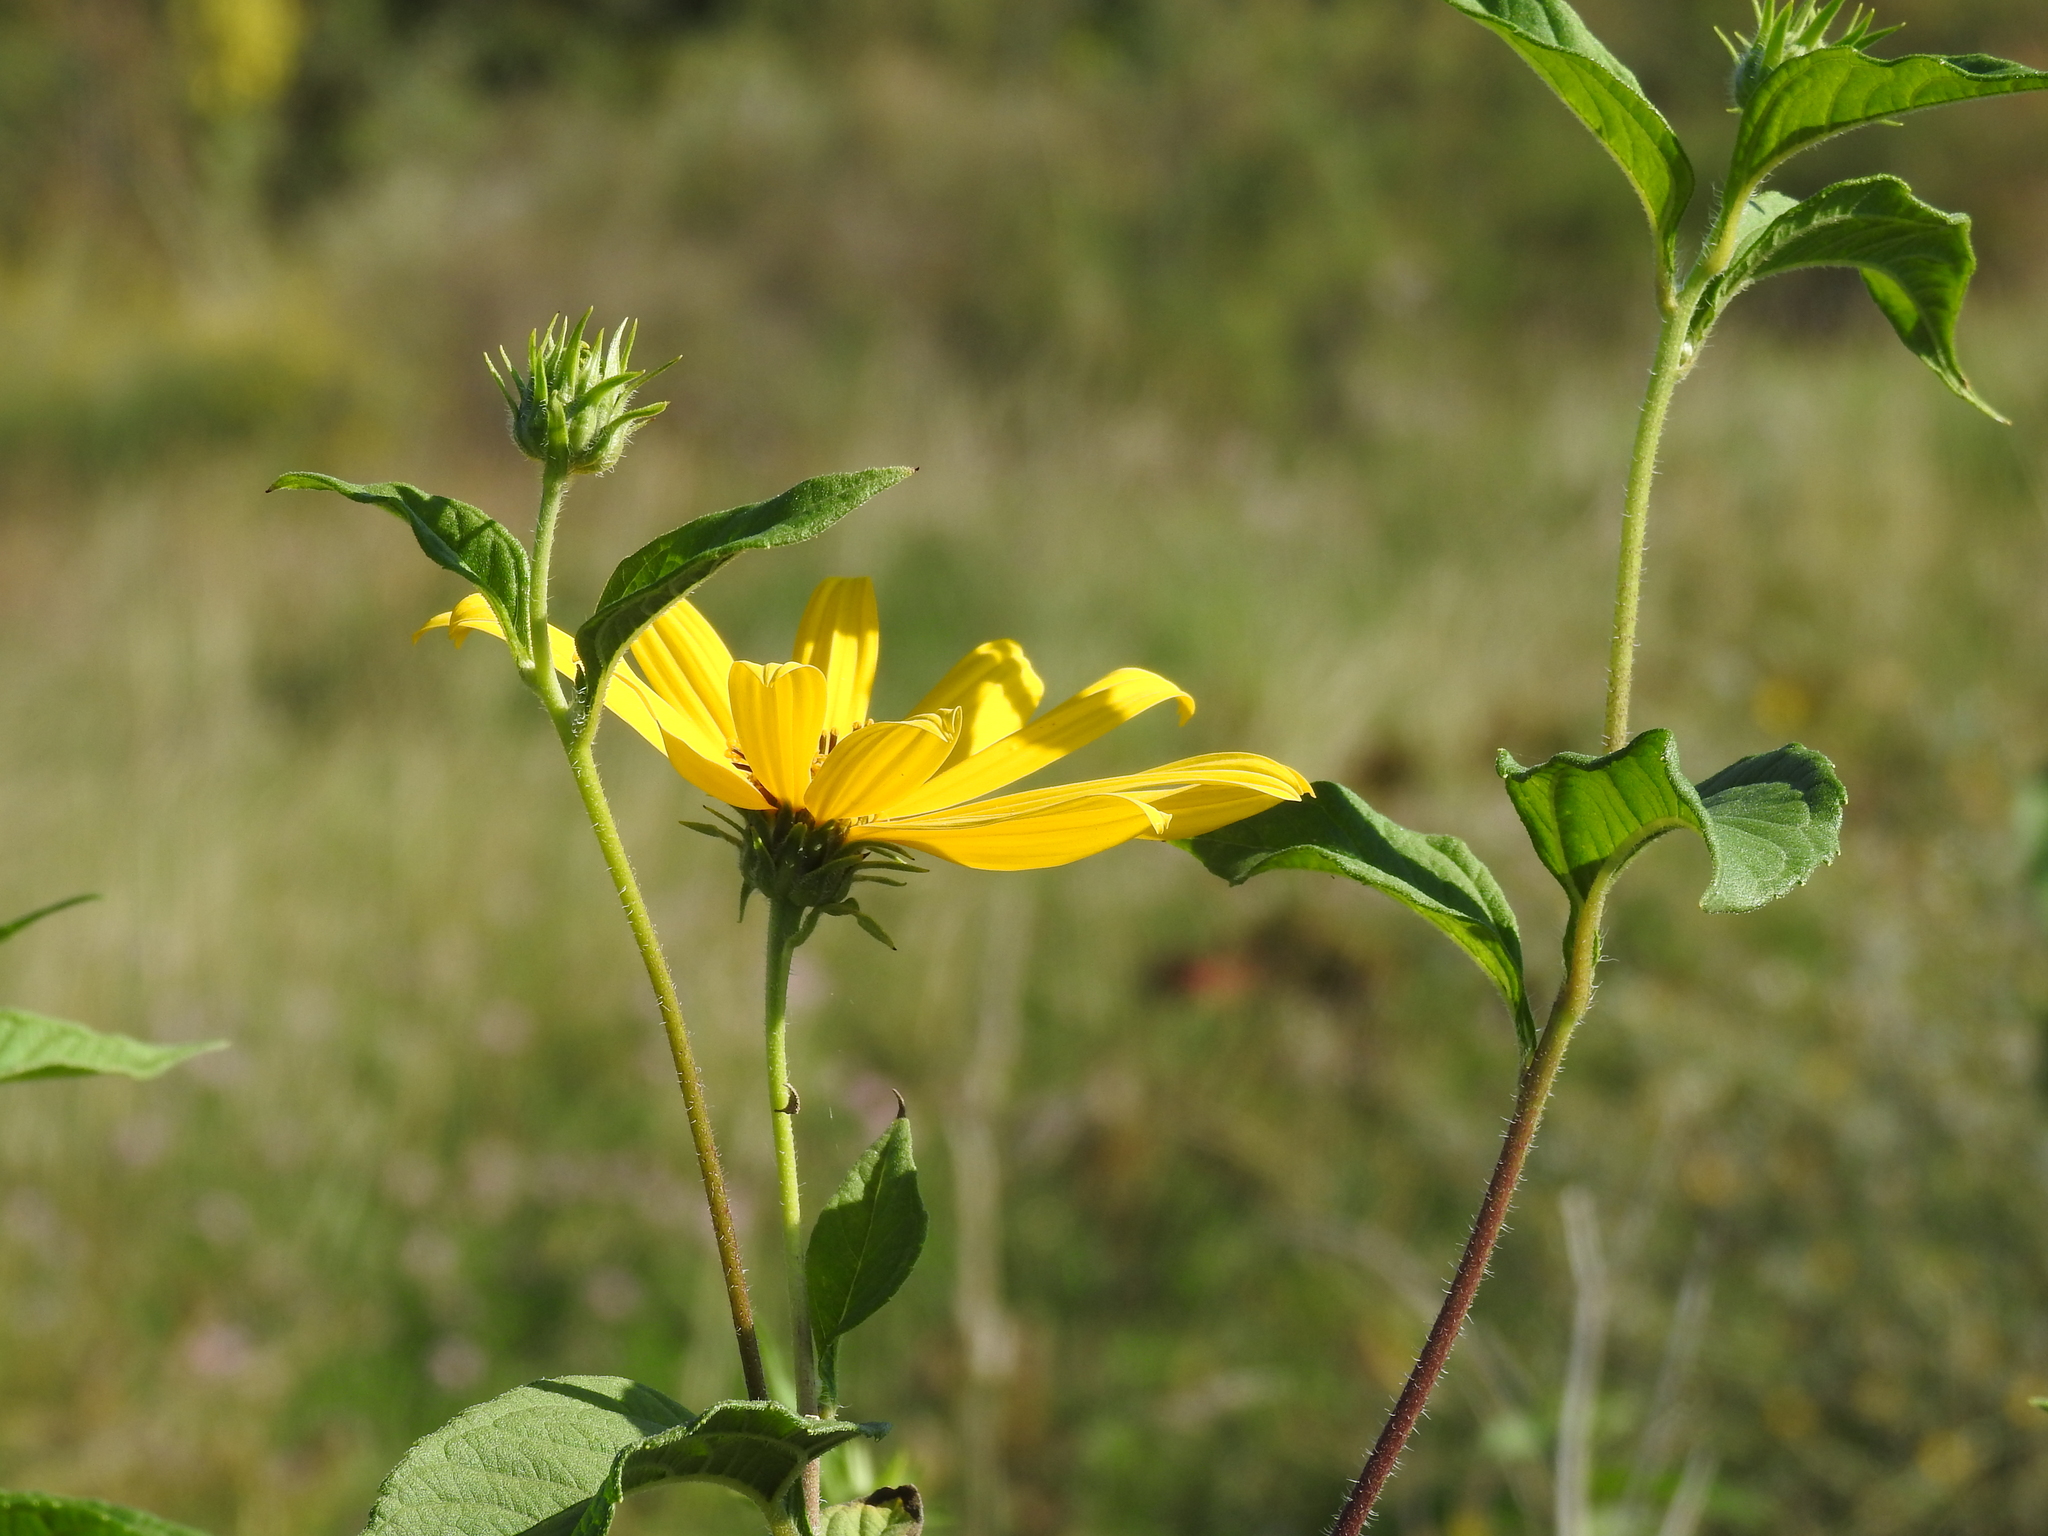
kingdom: Plantae
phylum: Tracheophyta
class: Magnoliopsida
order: Asterales
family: Asteraceae
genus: Helianthus
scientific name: Helianthus tuberosus
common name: Jerusalem artichoke
